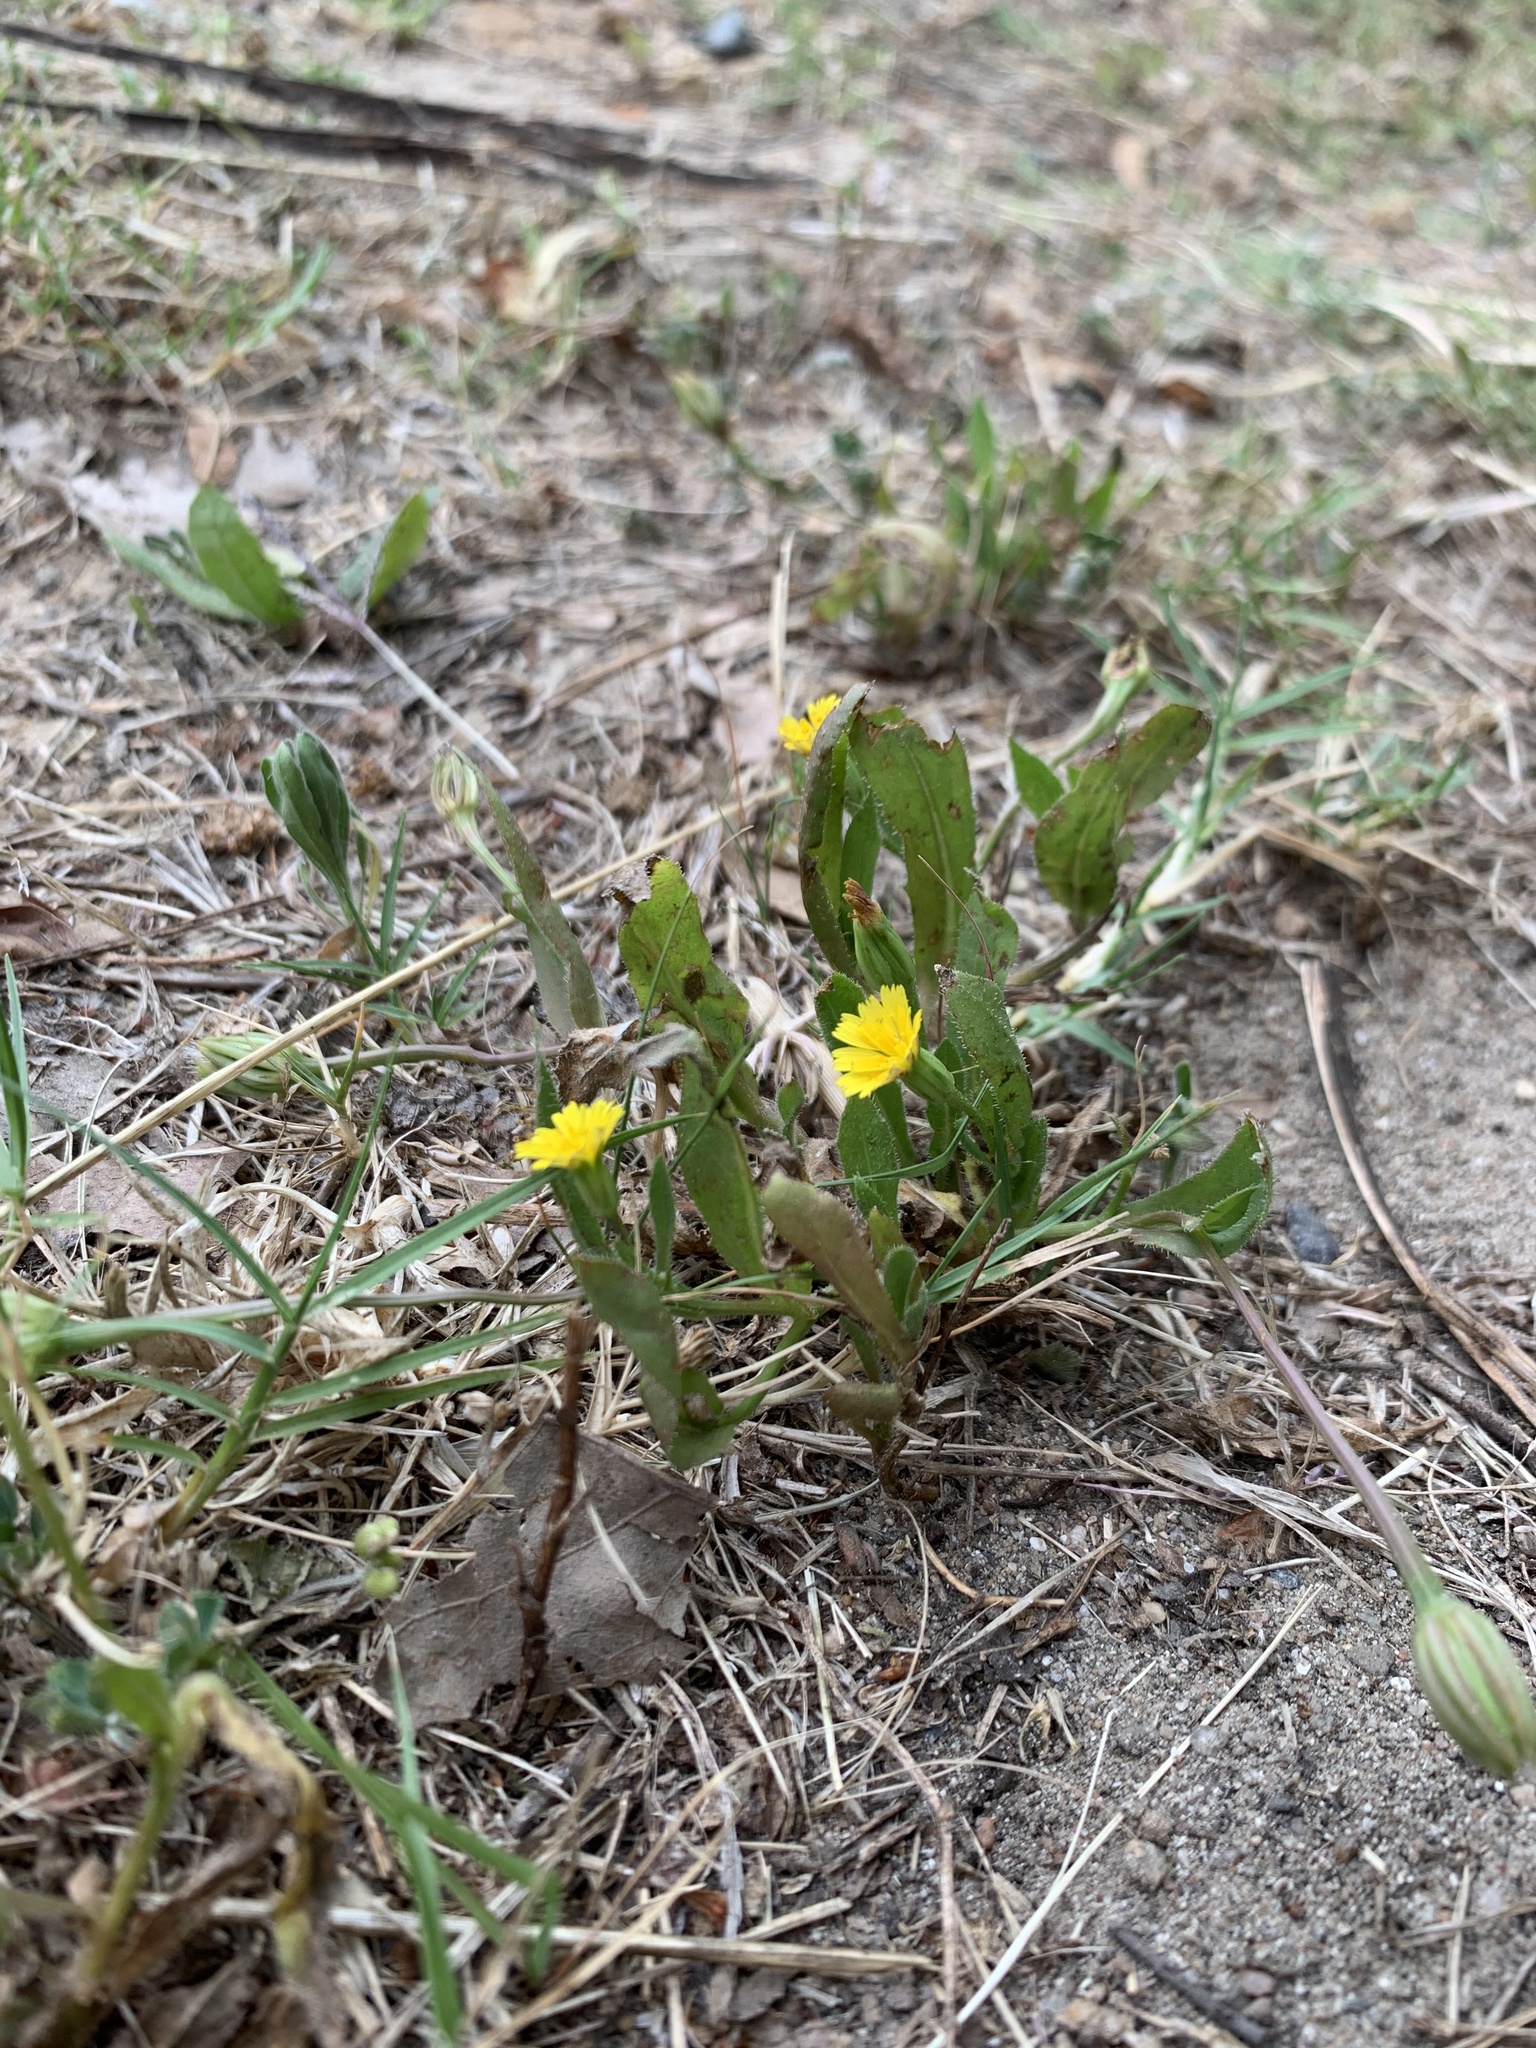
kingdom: Plantae
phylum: Tracheophyta
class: Magnoliopsida
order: Asterales
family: Asteraceae
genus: Hedypnois
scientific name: Hedypnois rhagadioloides
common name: Cretan weed
